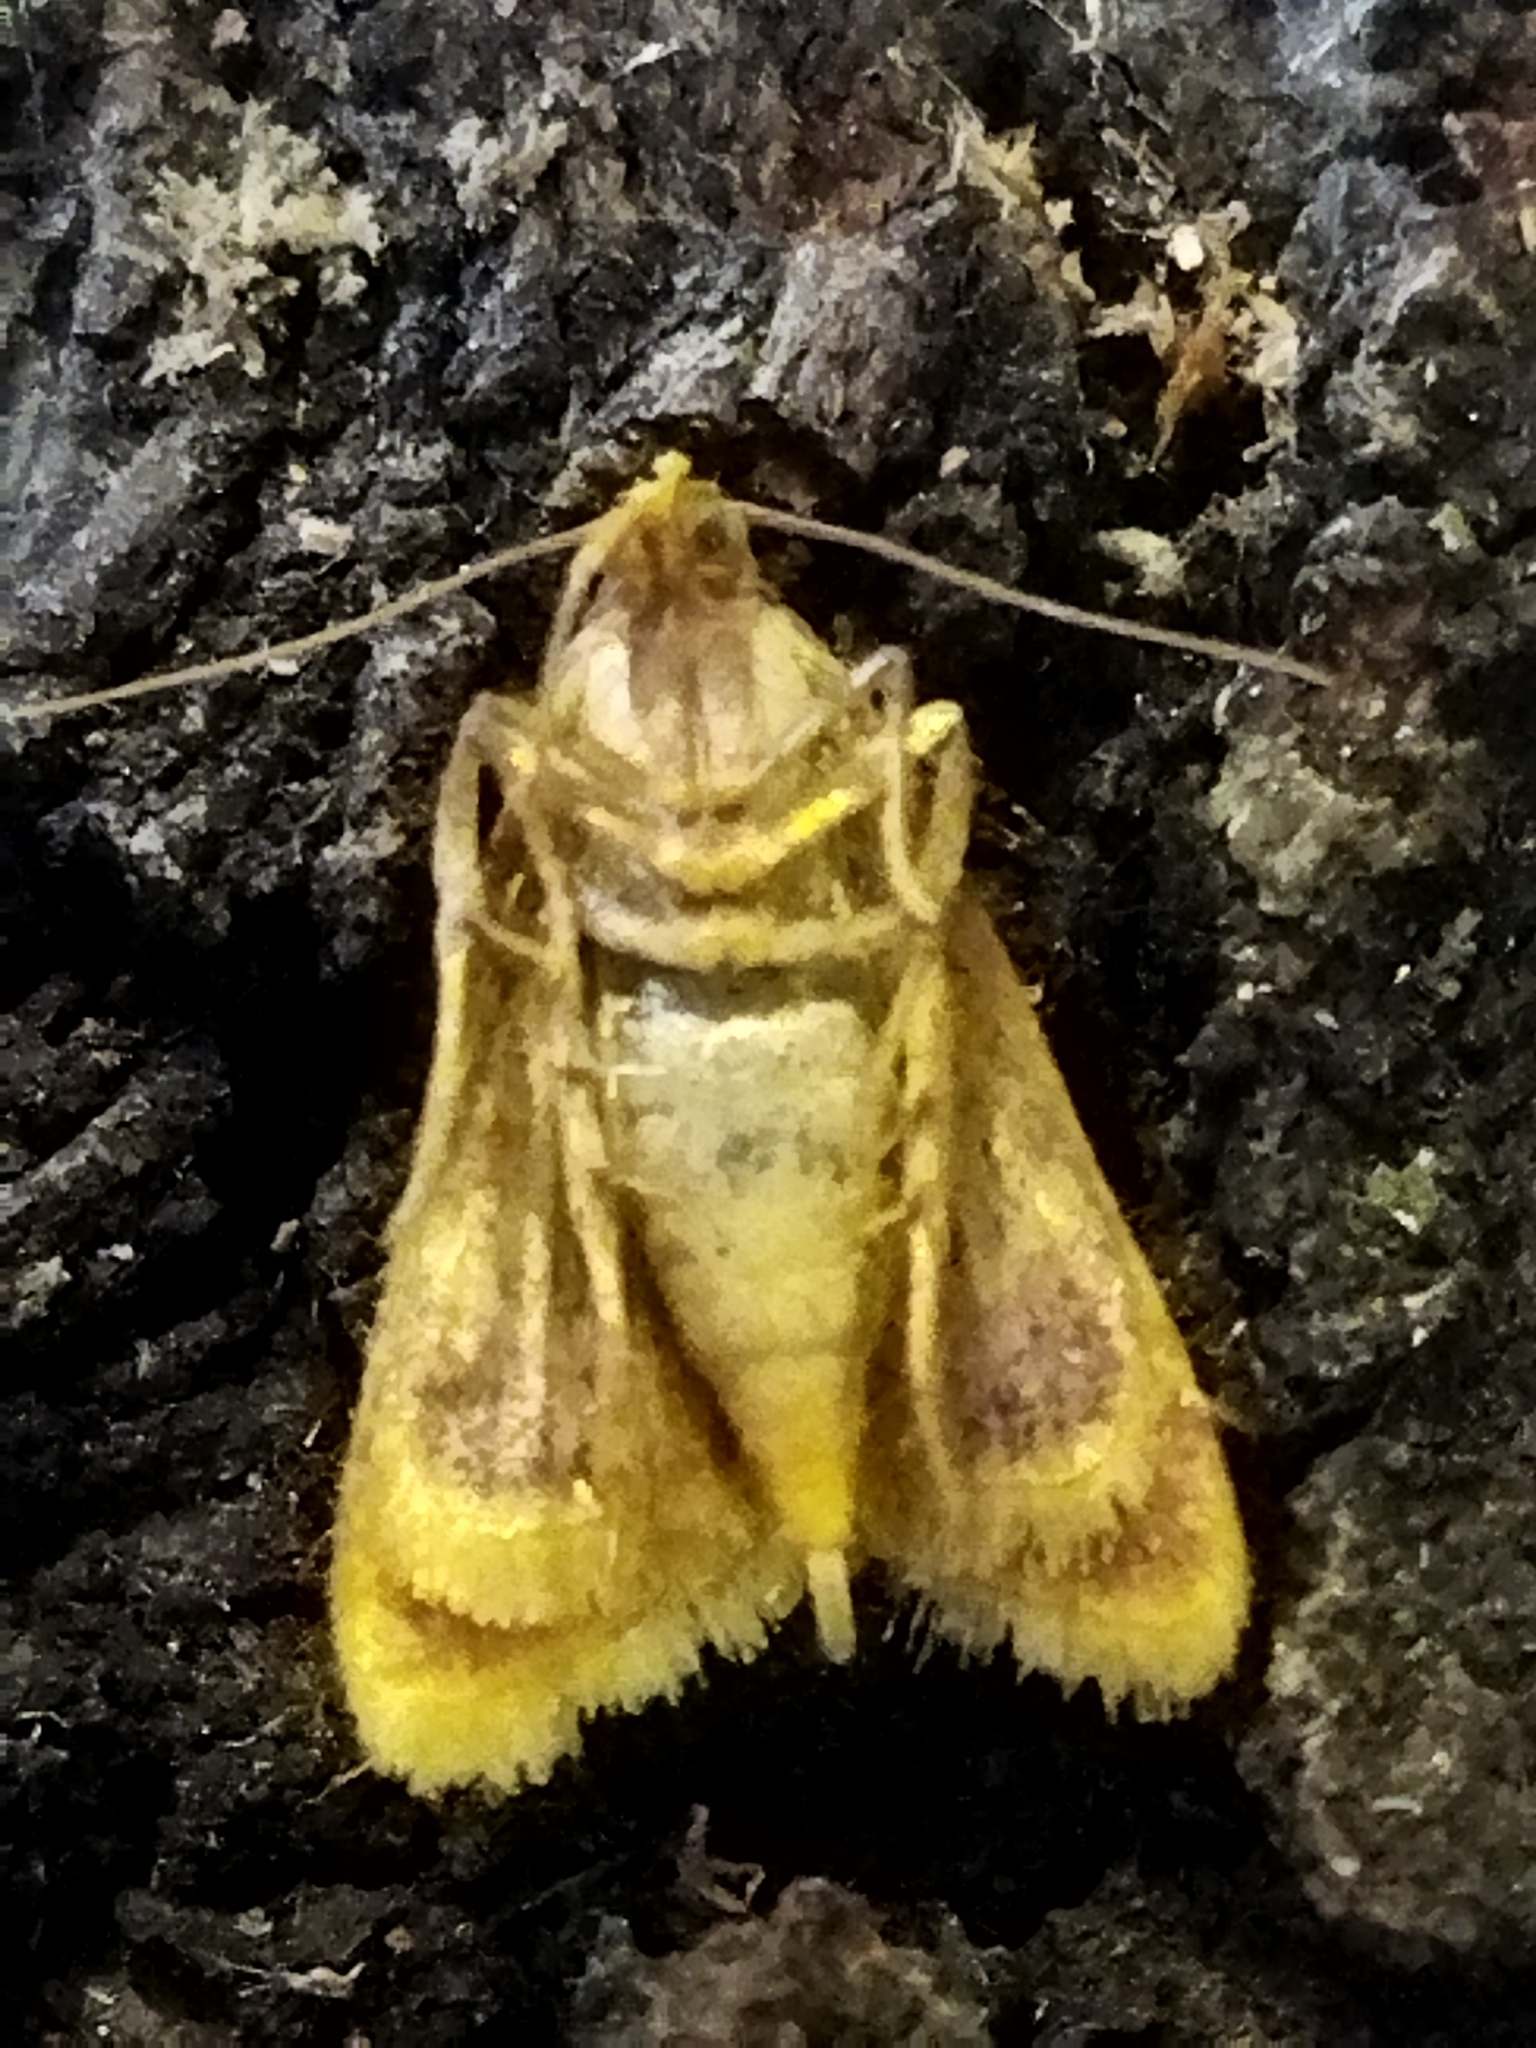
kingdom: Animalia
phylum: Arthropoda
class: Insecta
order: Lepidoptera
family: Pyralidae
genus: Hypsopygia
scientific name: Hypsopygia costalis
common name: Gold triangle
